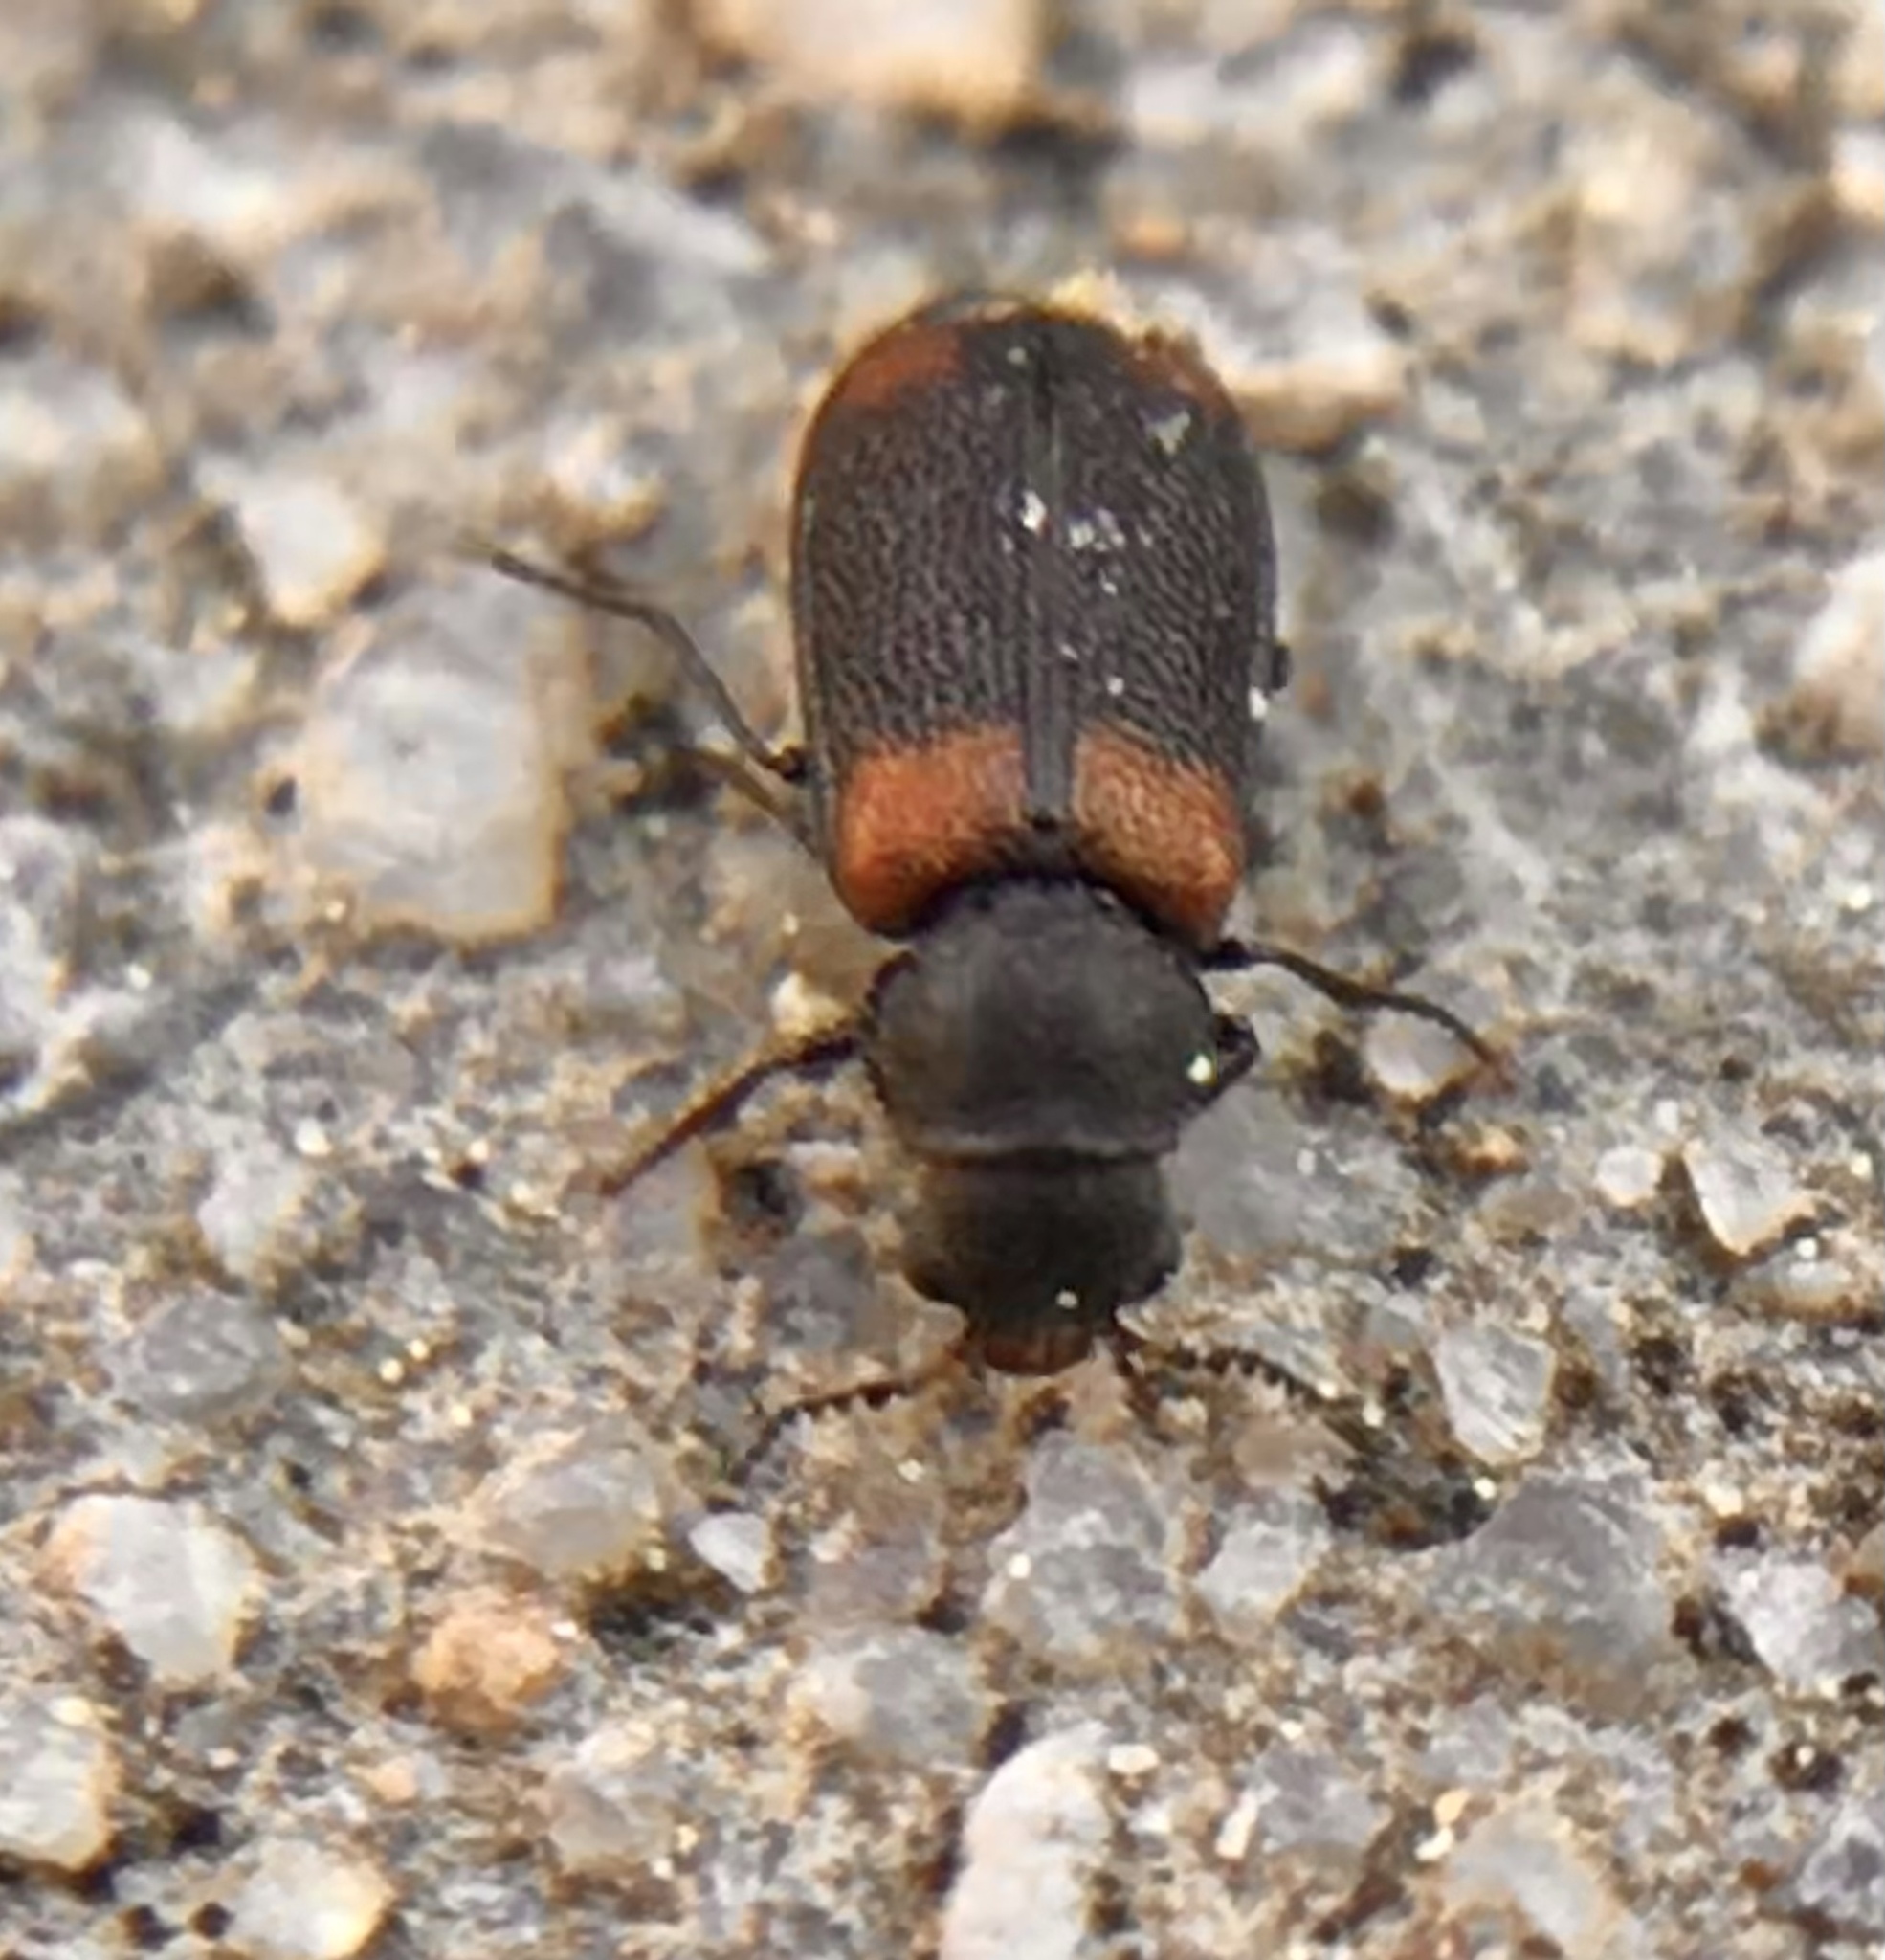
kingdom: Animalia
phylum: Arthropoda
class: Insecta
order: Coleoptera
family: Melyridae
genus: Melyrodes
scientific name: Melyrodes
